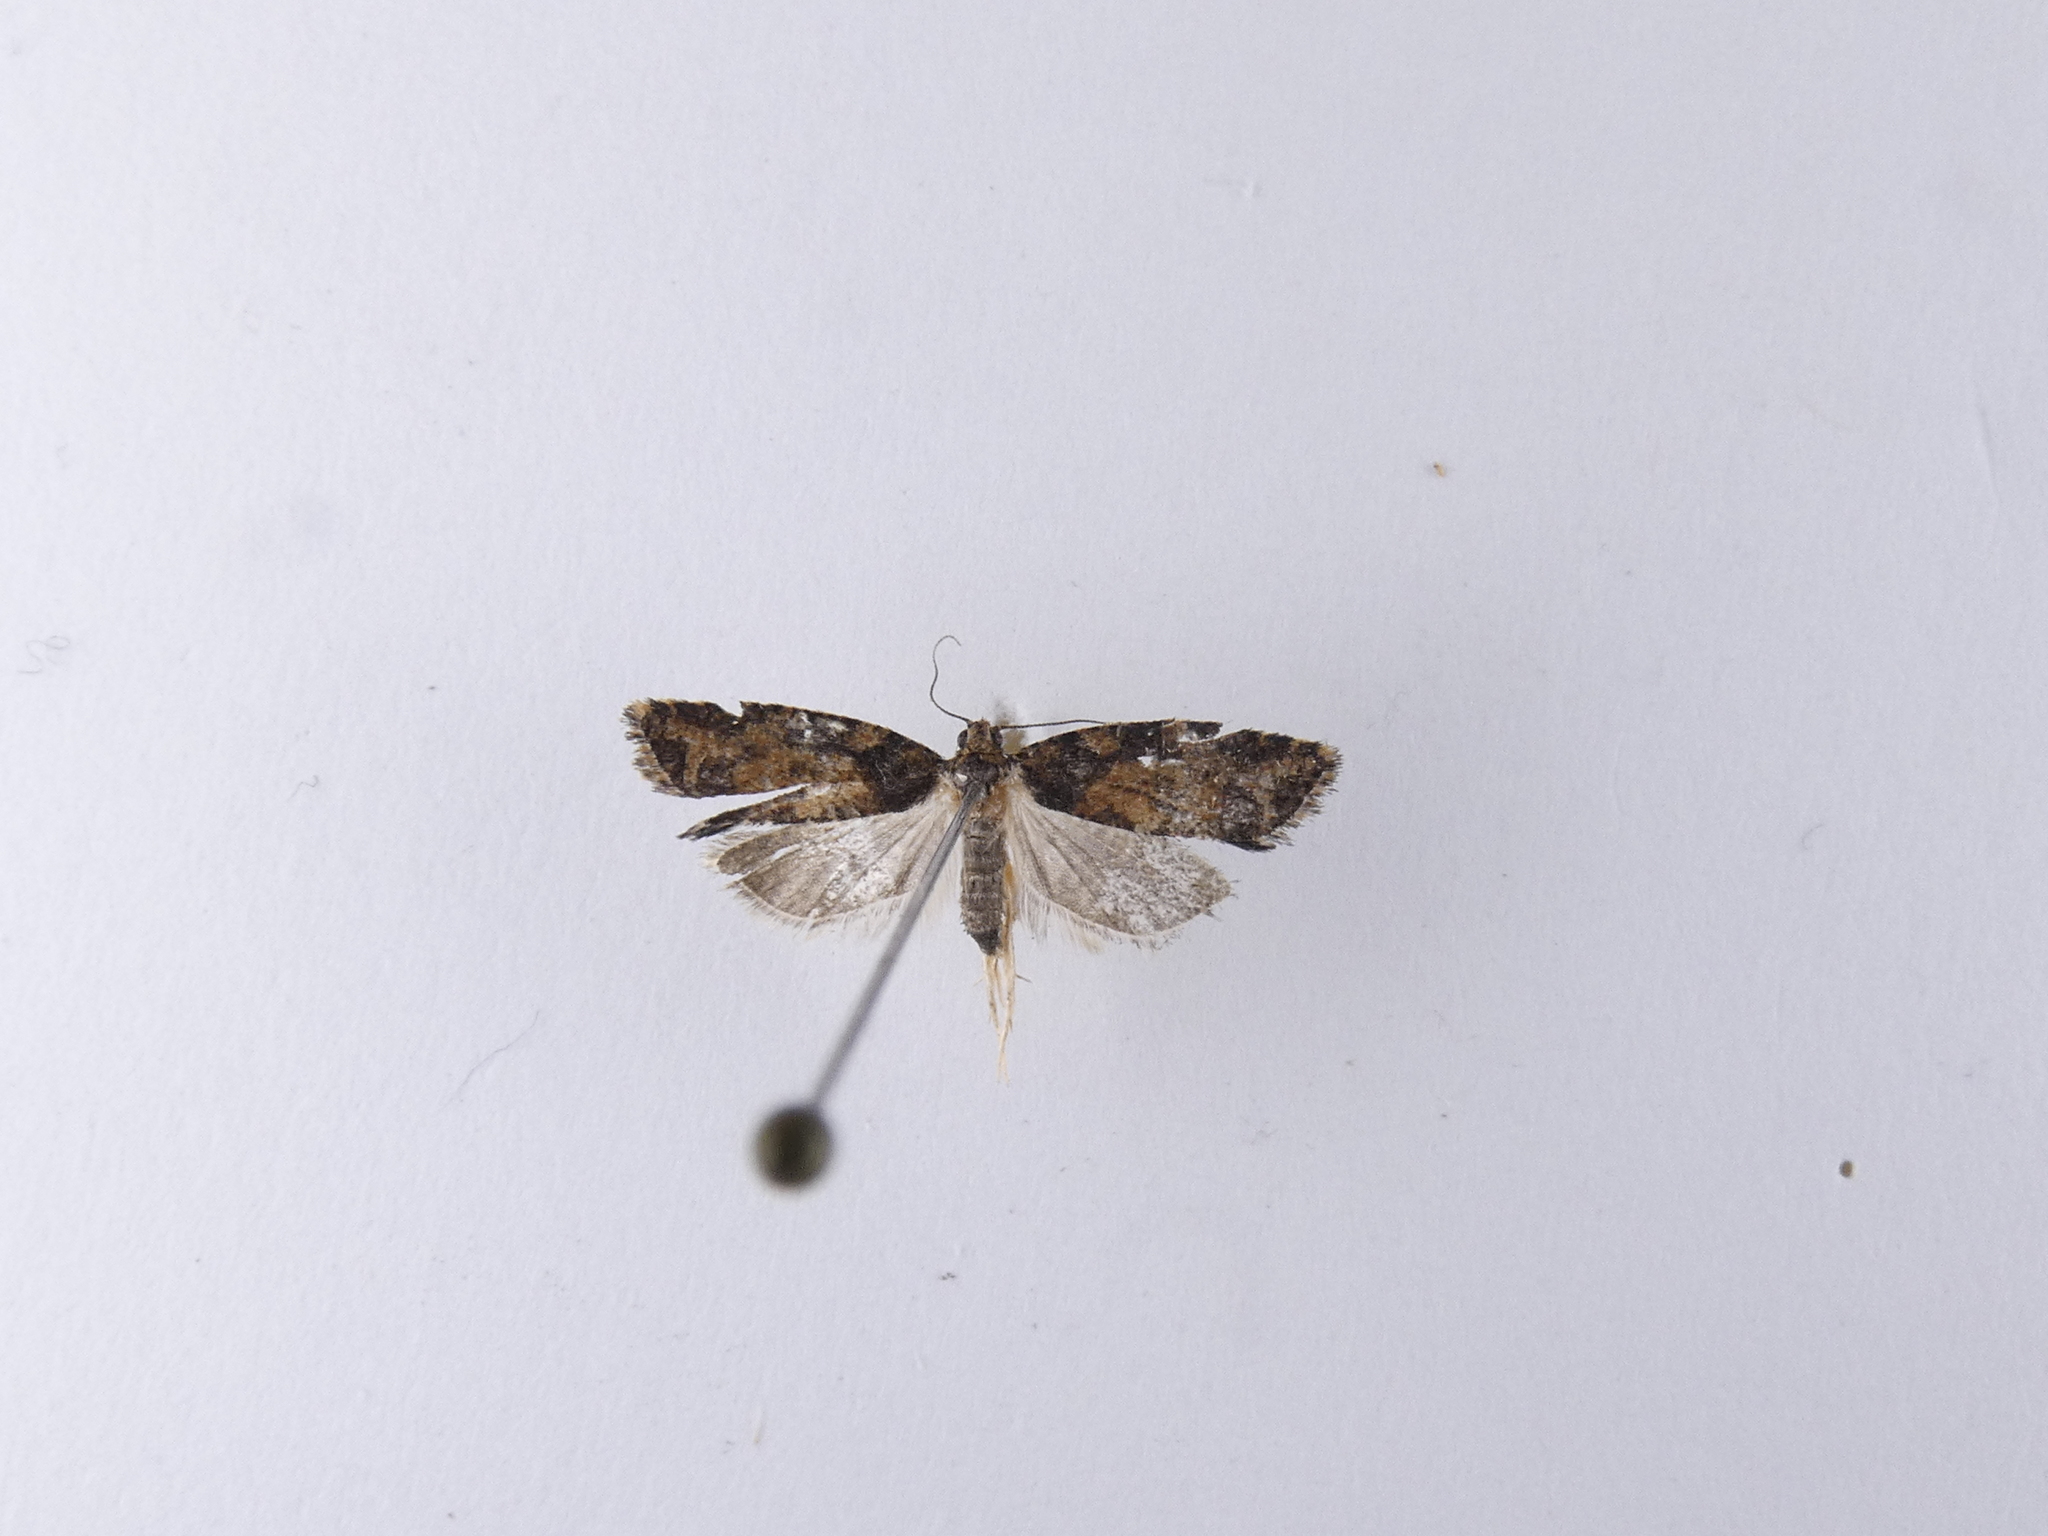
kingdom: Animalia
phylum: Arthropoda
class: Insecta
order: Lepidoptera
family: Tortricidae
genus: Capua
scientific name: Capua intractana
